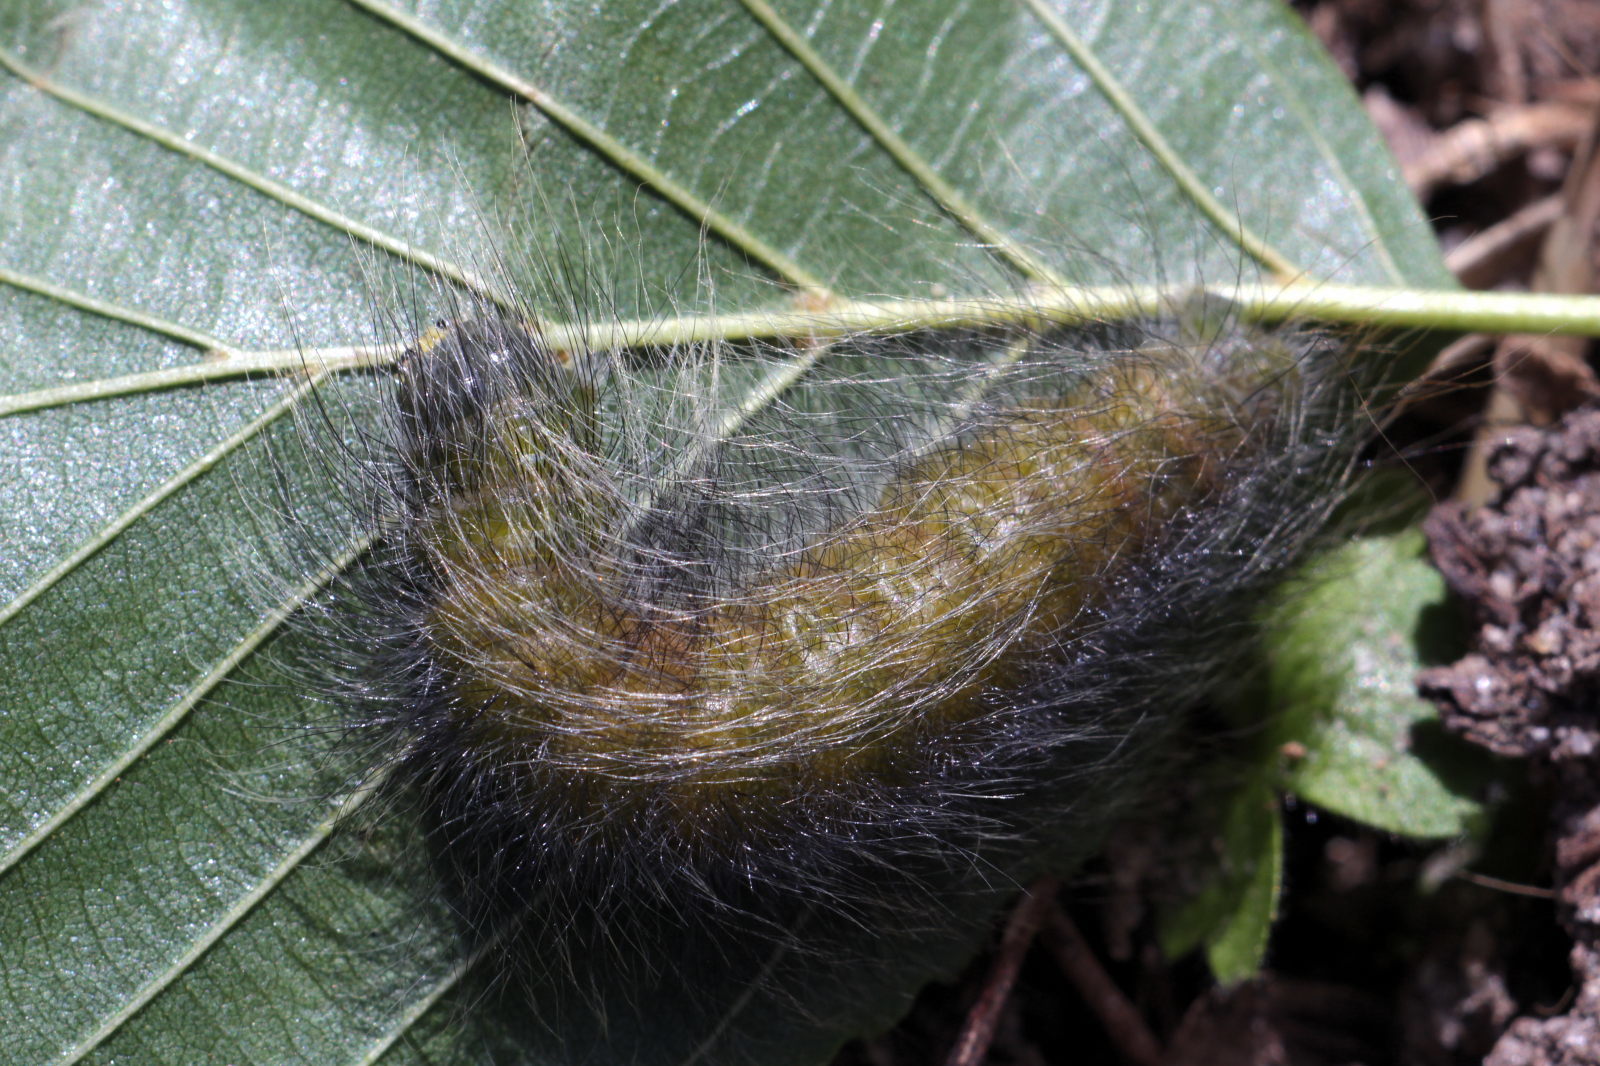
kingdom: Animalia
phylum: Arthropoda
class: Insecta
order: Lepidoptera
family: Noctuidae
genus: Acronicta
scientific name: Acronicta leporina
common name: Miller
